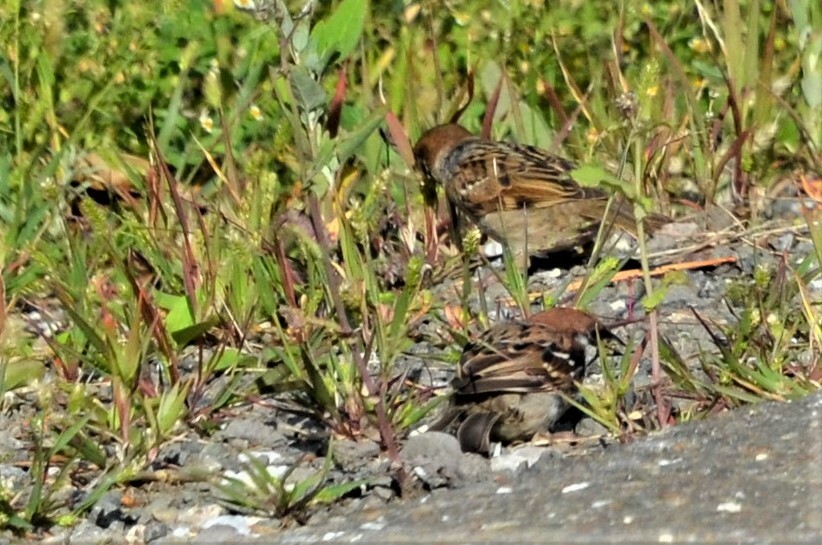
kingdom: Animalia
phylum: Chordata
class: Aves
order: Passeriformes
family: Passeridae
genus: Passer
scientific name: Passer montanus
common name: Eurasian tree sparrow
